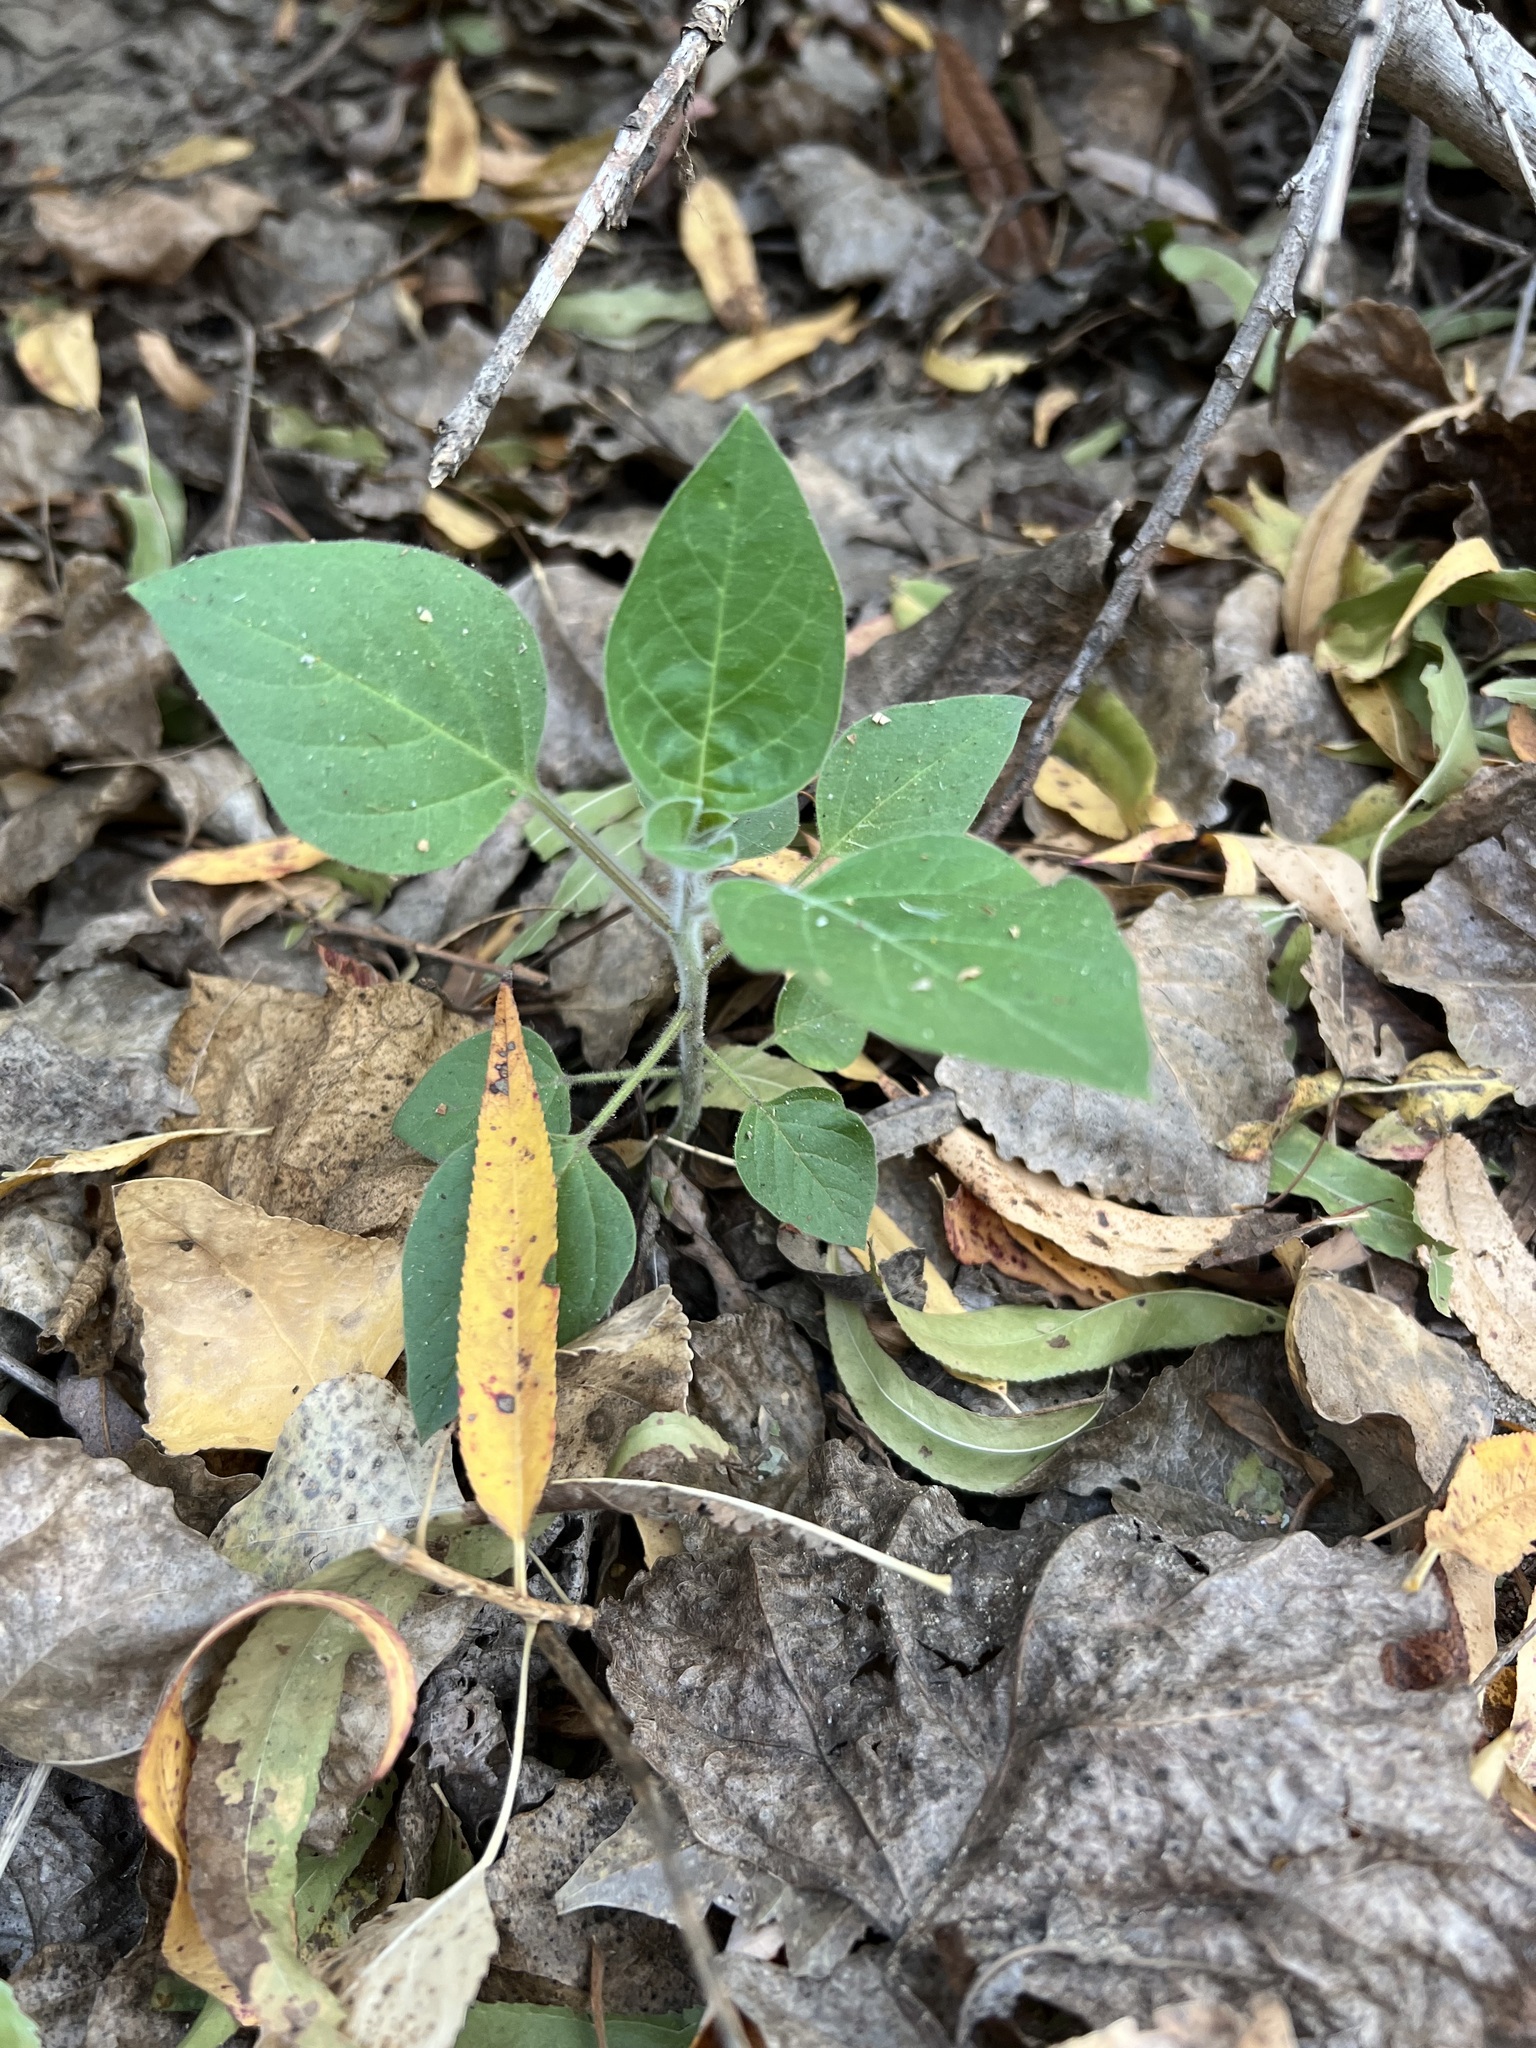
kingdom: Plantae
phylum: Tracheophyta
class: Magnoliopsida
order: Solanales
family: Solanaceae
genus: Datura
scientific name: Datura wrightii
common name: Sacred thorn-apple
